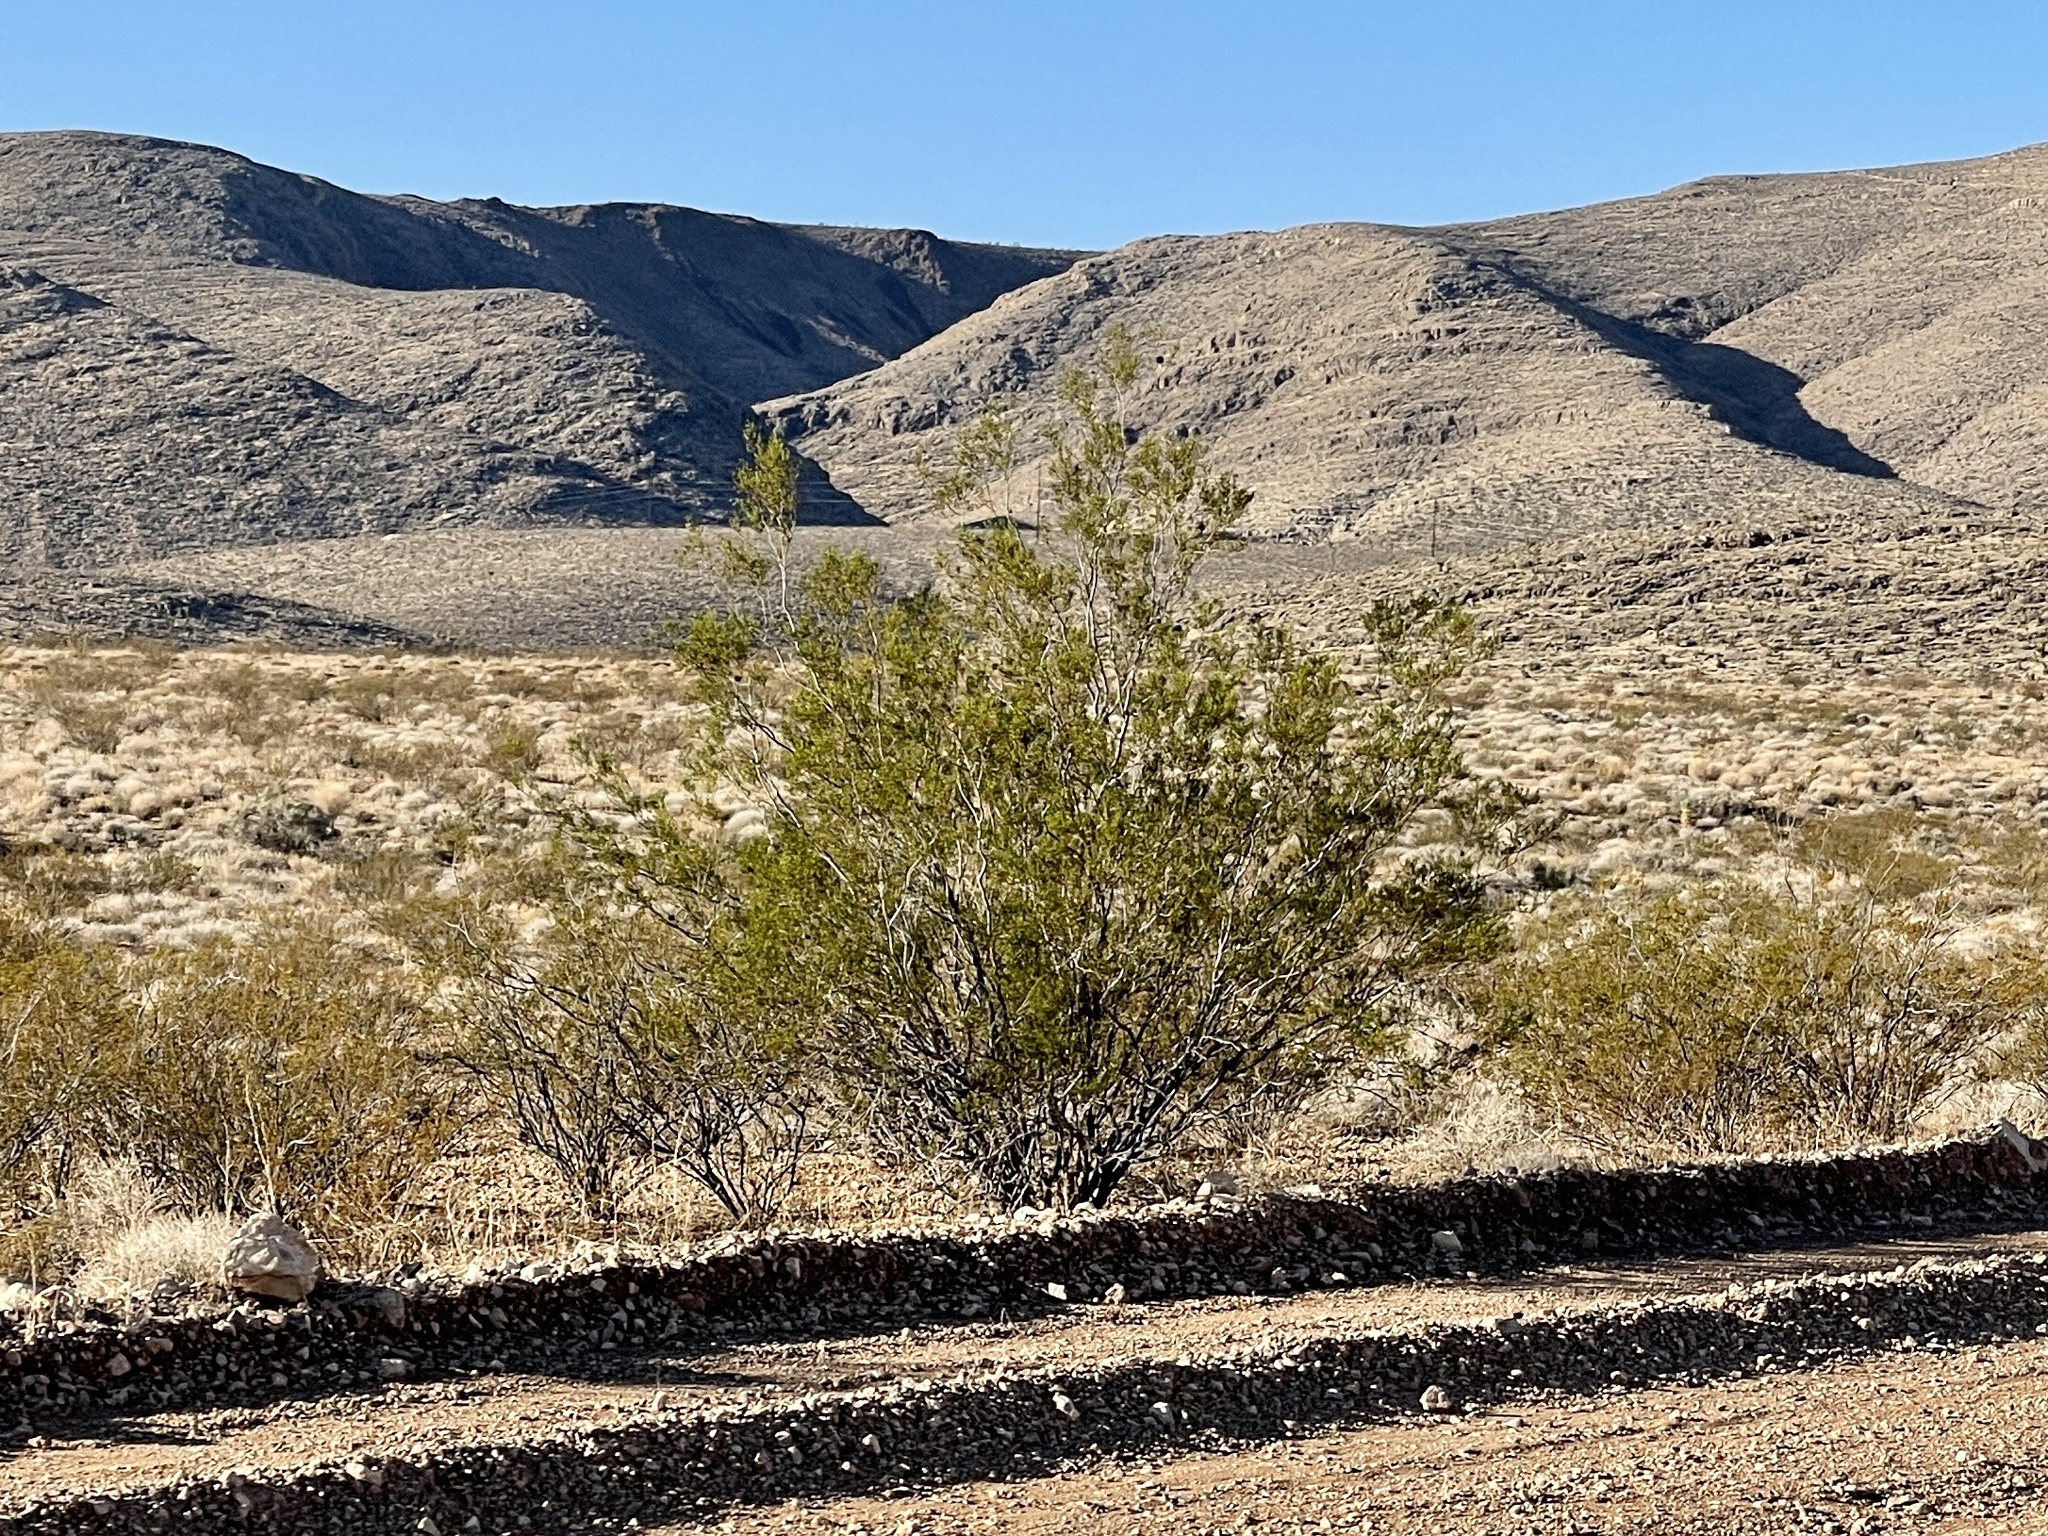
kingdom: Plantae
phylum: Tracheophyta
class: Magnoliopsida
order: Zygophyllales
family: Zygophyllaceae
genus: Larrea
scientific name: Larrea tridentata
